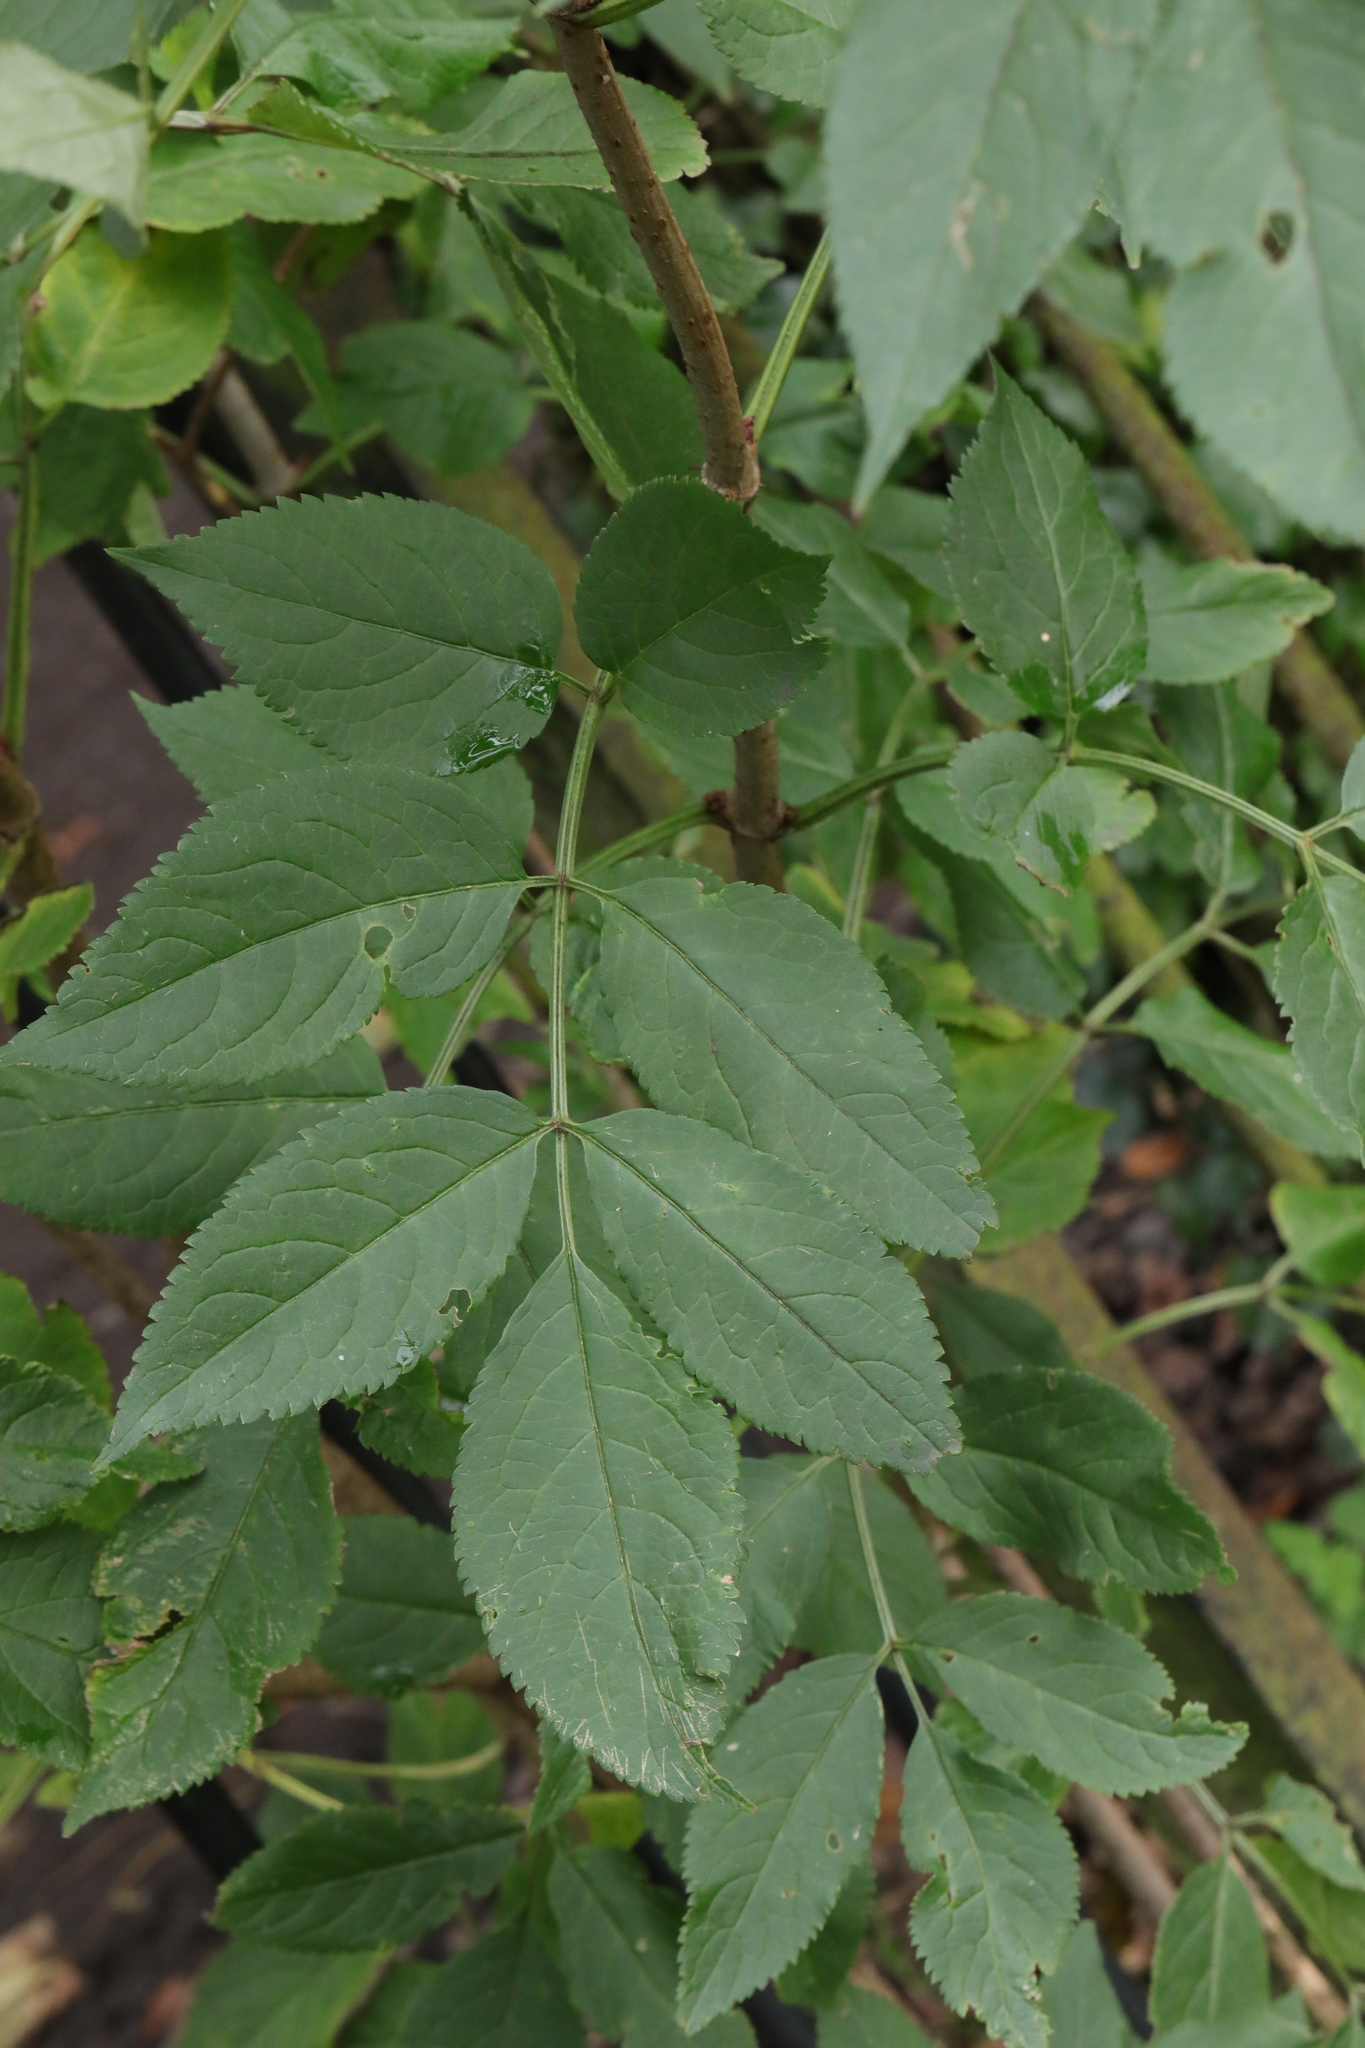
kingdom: Plantae
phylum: Tracheophyta
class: Magnoliopsida
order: Dipsacales
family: Viburnaceae
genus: Sambucus
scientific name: Sambucus nigra
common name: Elder
